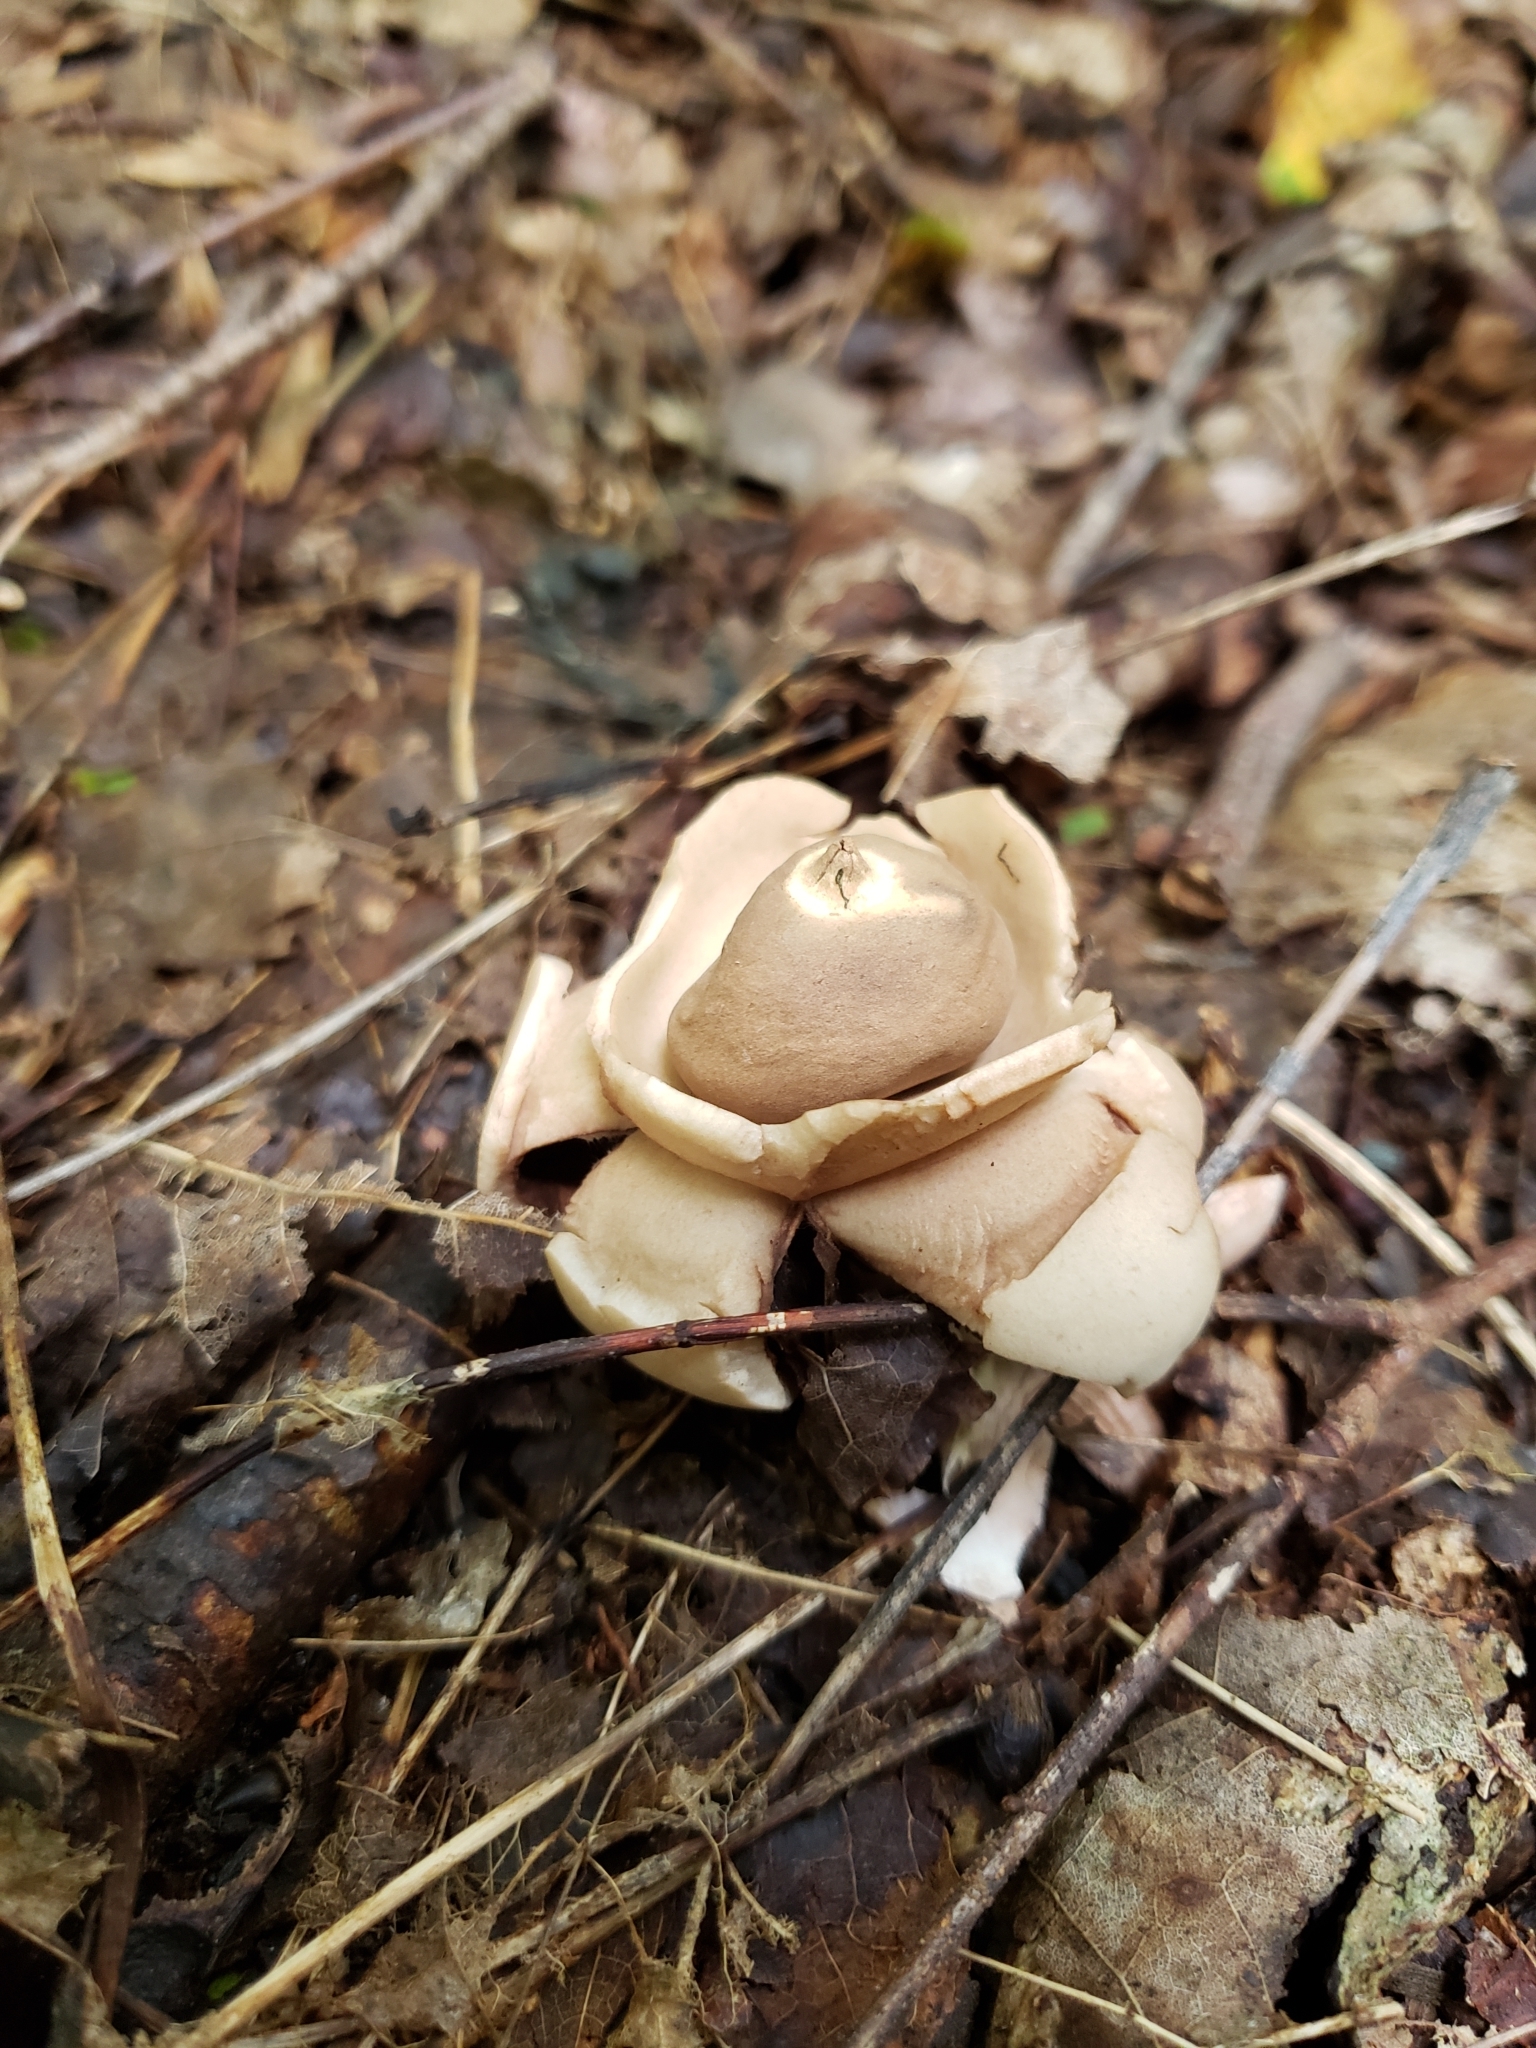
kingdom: Fungi
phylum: Basidiomycota
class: Agaricomycetes
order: Geastrales
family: Geastraceae
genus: Geastrum
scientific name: Geastrum triplex
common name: Collared earthstar
